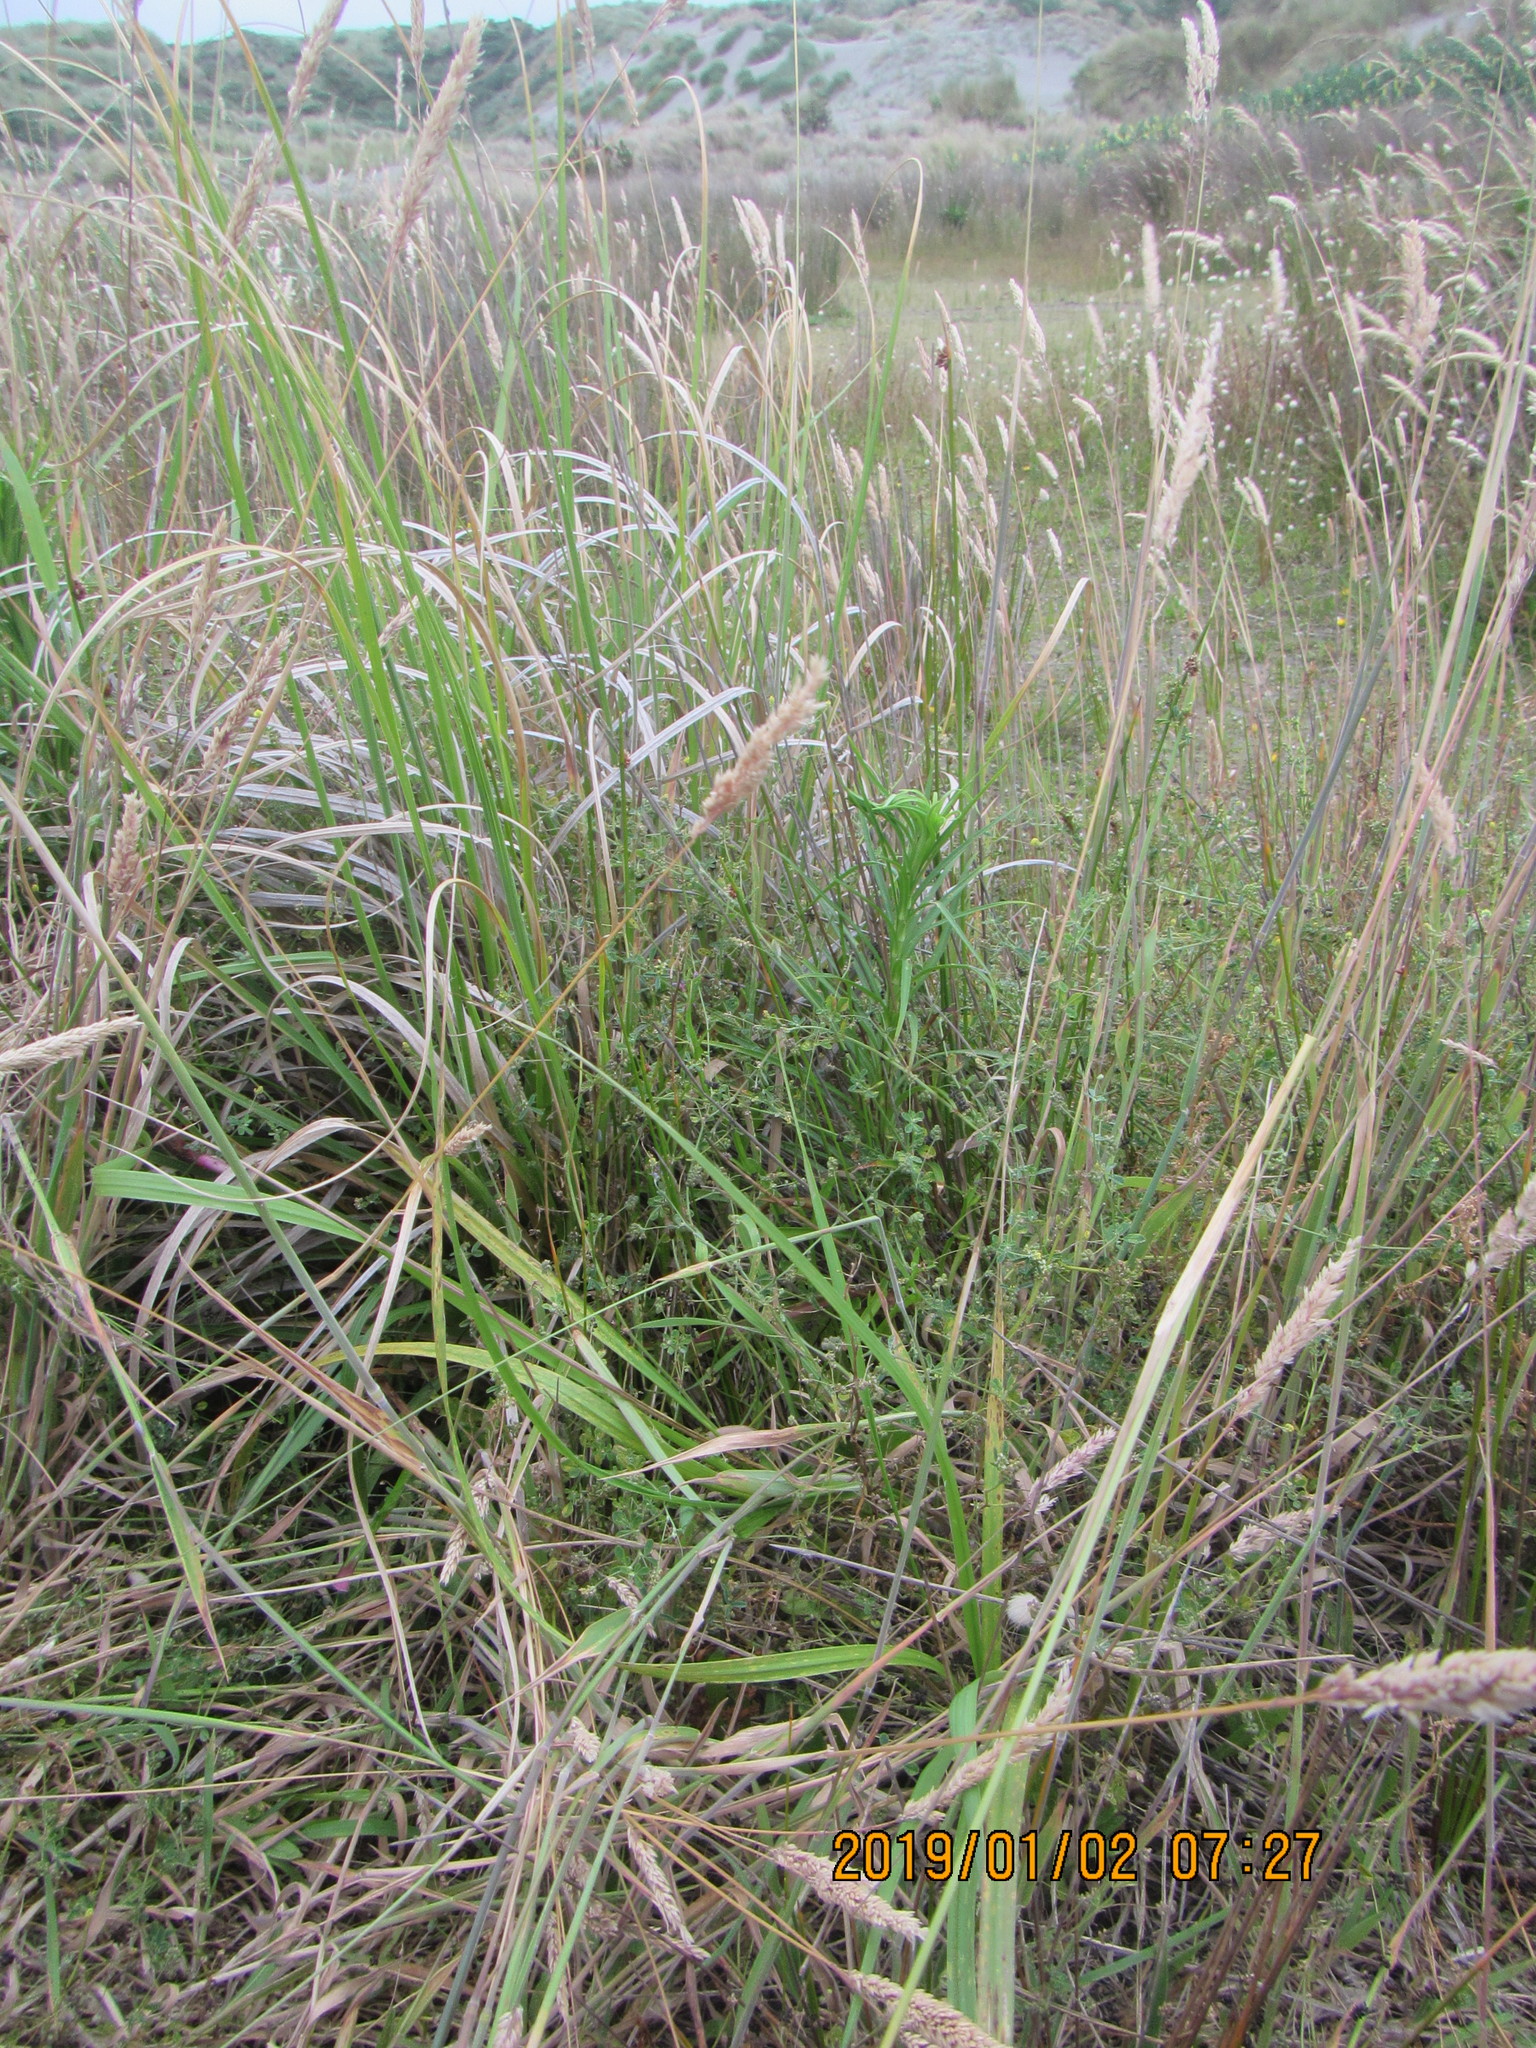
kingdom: Plantae
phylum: Tracheophyta
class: Magnoliopsida
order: Asterales
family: Campanulaceae
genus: Lobelia
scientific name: Lobelia anceps
